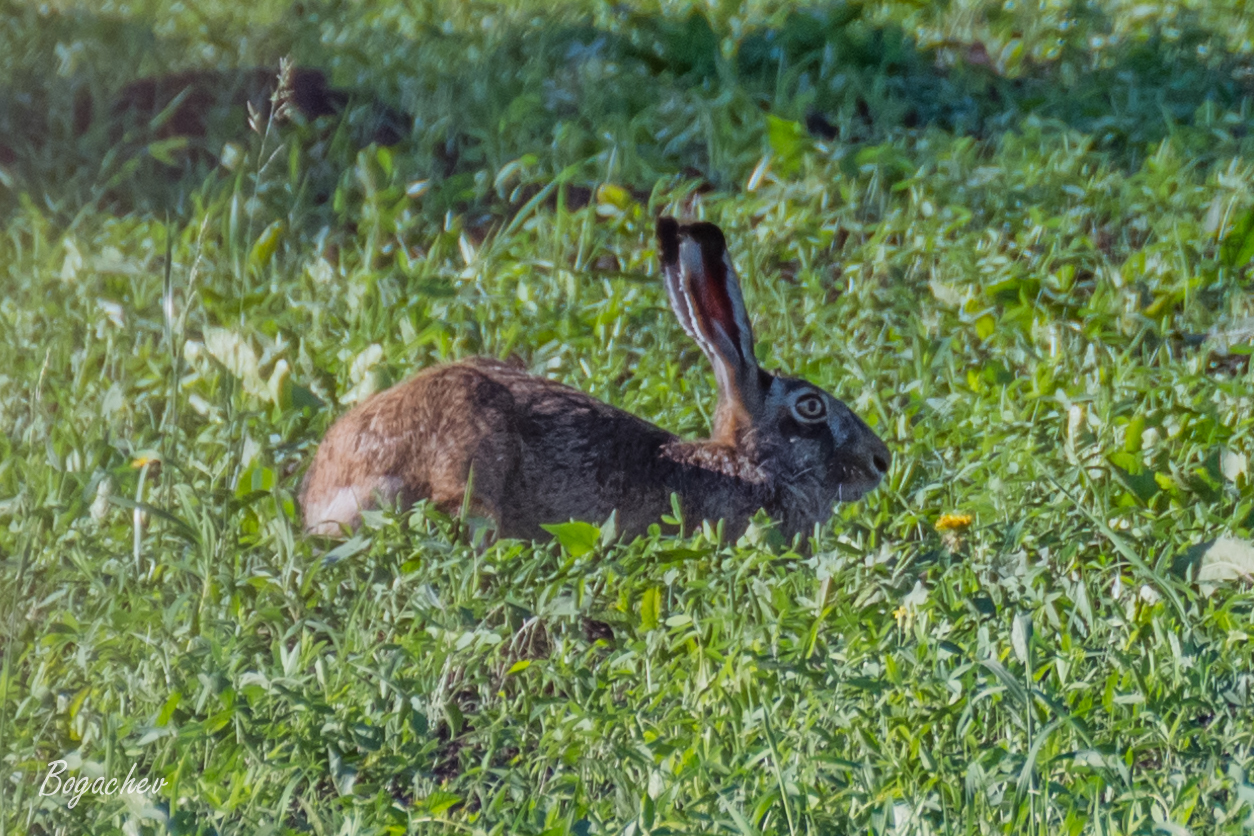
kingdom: Animalia
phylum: Chordata
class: Mammalia
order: Lagomorpha
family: Leporidae
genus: Lepus
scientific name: Lepus europaeus
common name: European hare
